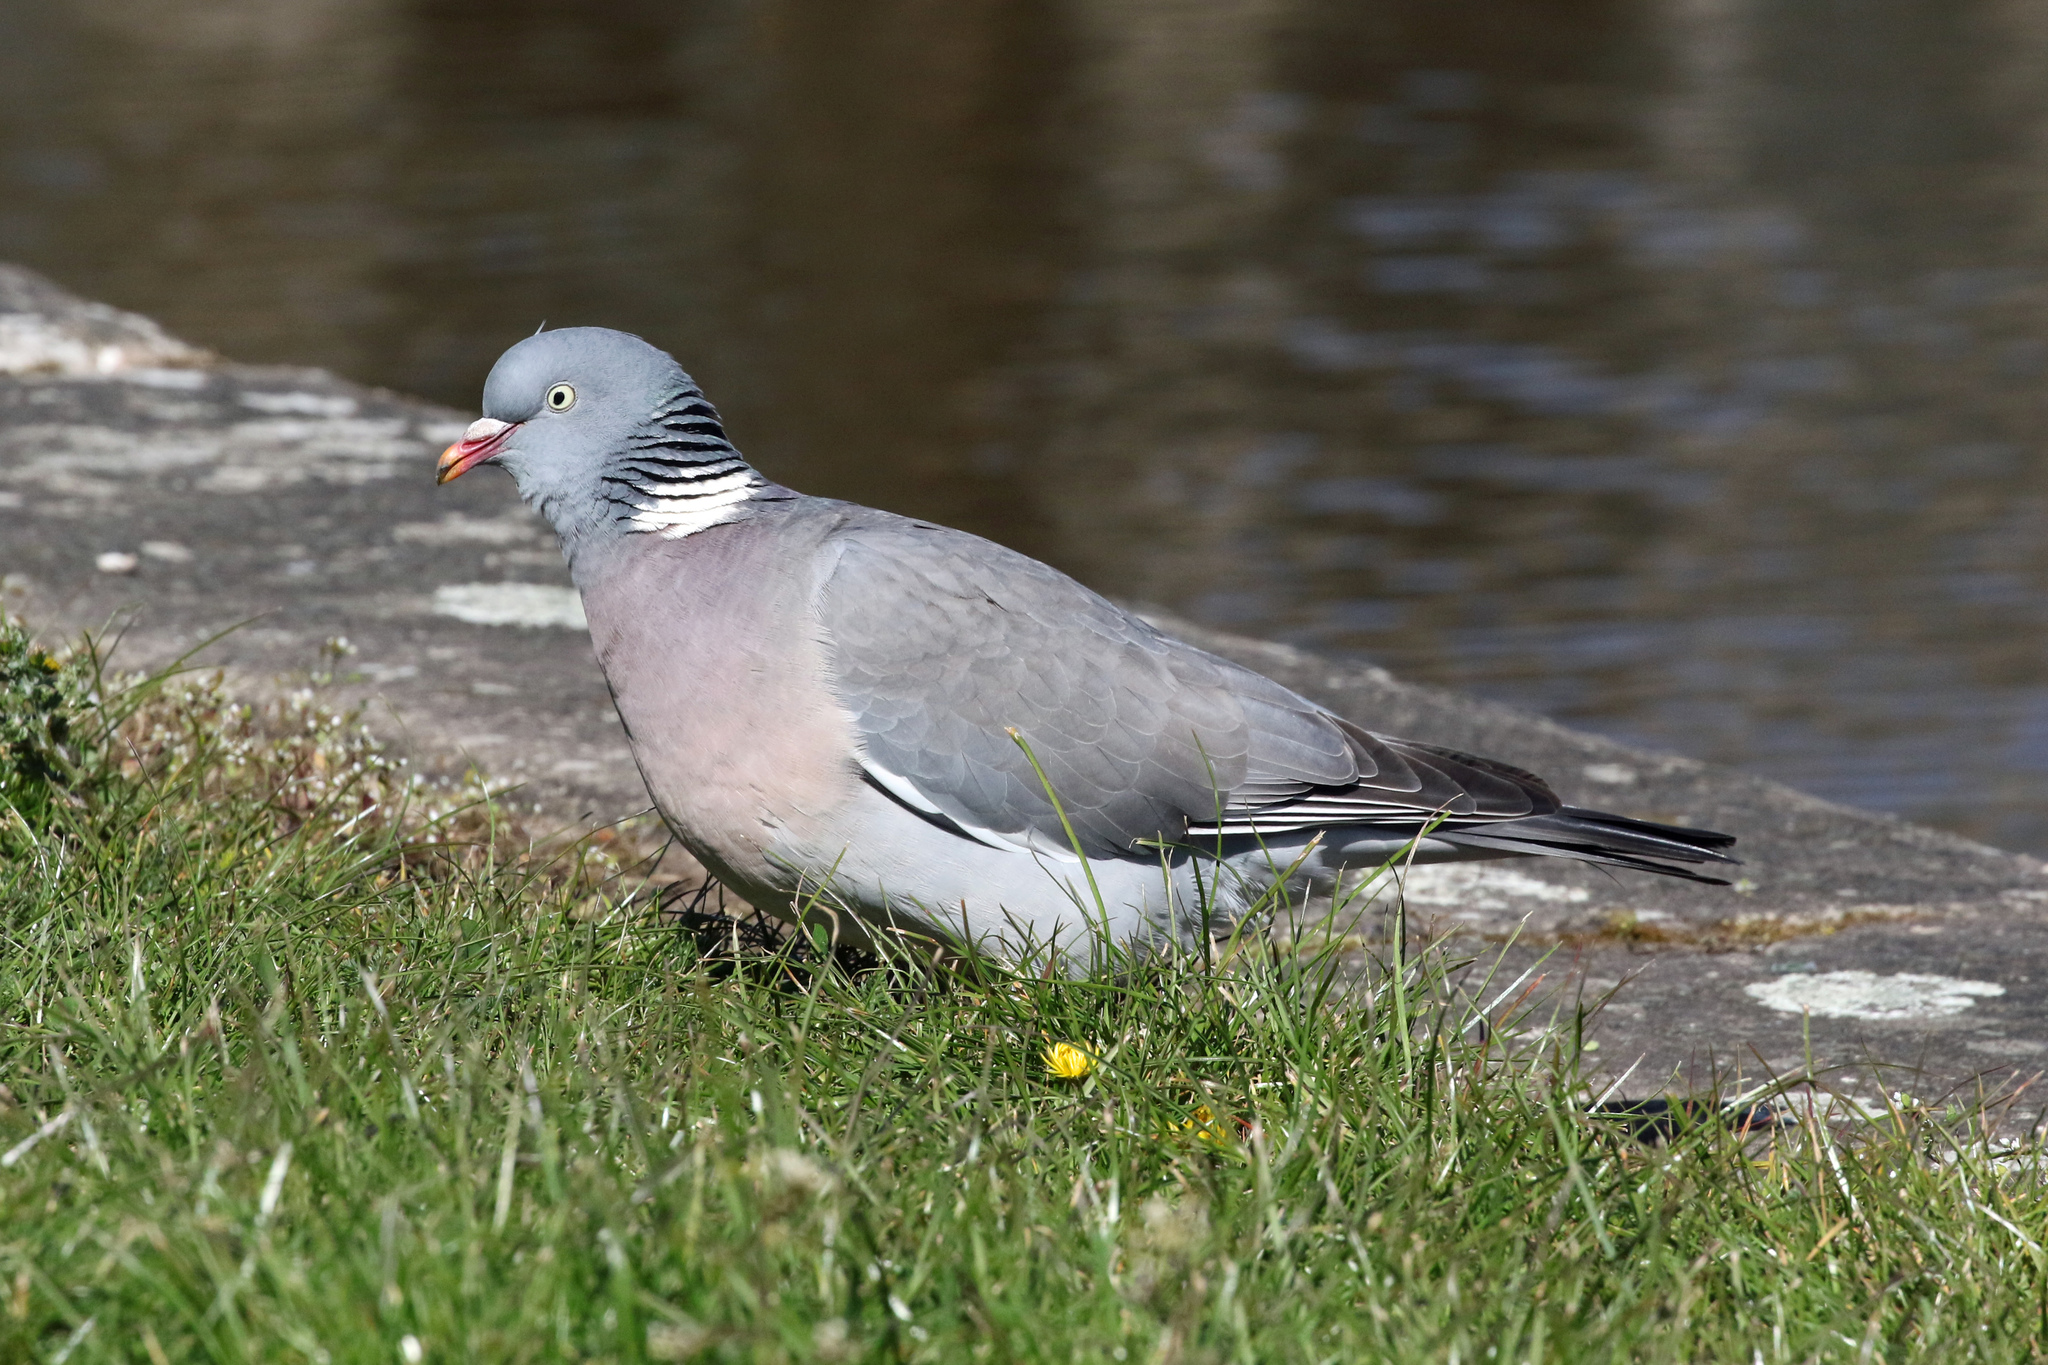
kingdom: Animalia
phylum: Chordata
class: Aves
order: Columbiformes
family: Columbidae
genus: Columba
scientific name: Columba palumbus
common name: Common wood pigeon
